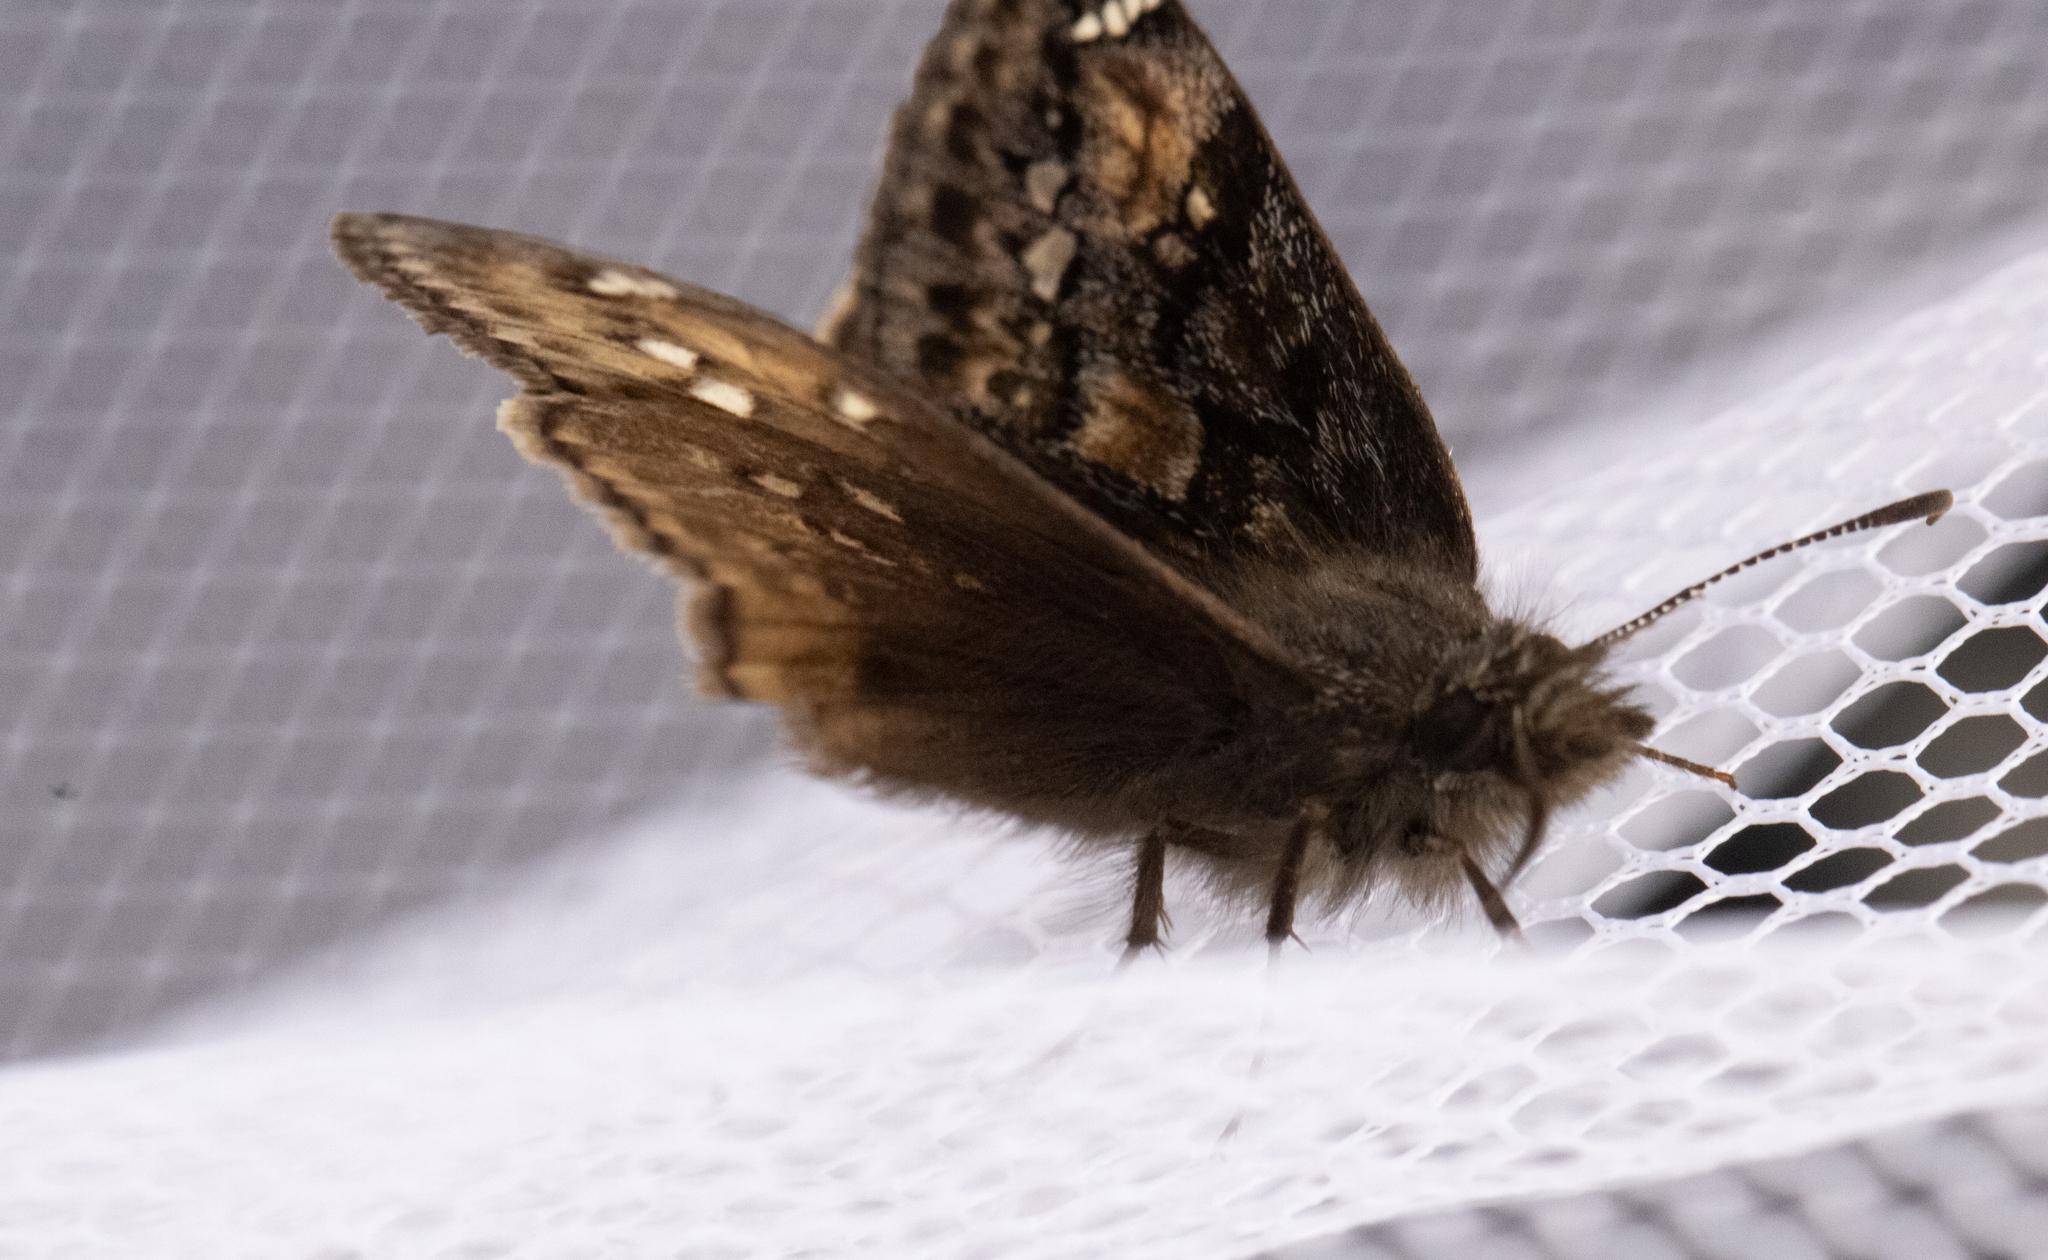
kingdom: Animalia
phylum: Arthropoda
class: Insecta
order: Lepidoptera
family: Hesperiidae
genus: Erynnis
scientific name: Erynnis juvenalis
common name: Juvenal's duskywing
